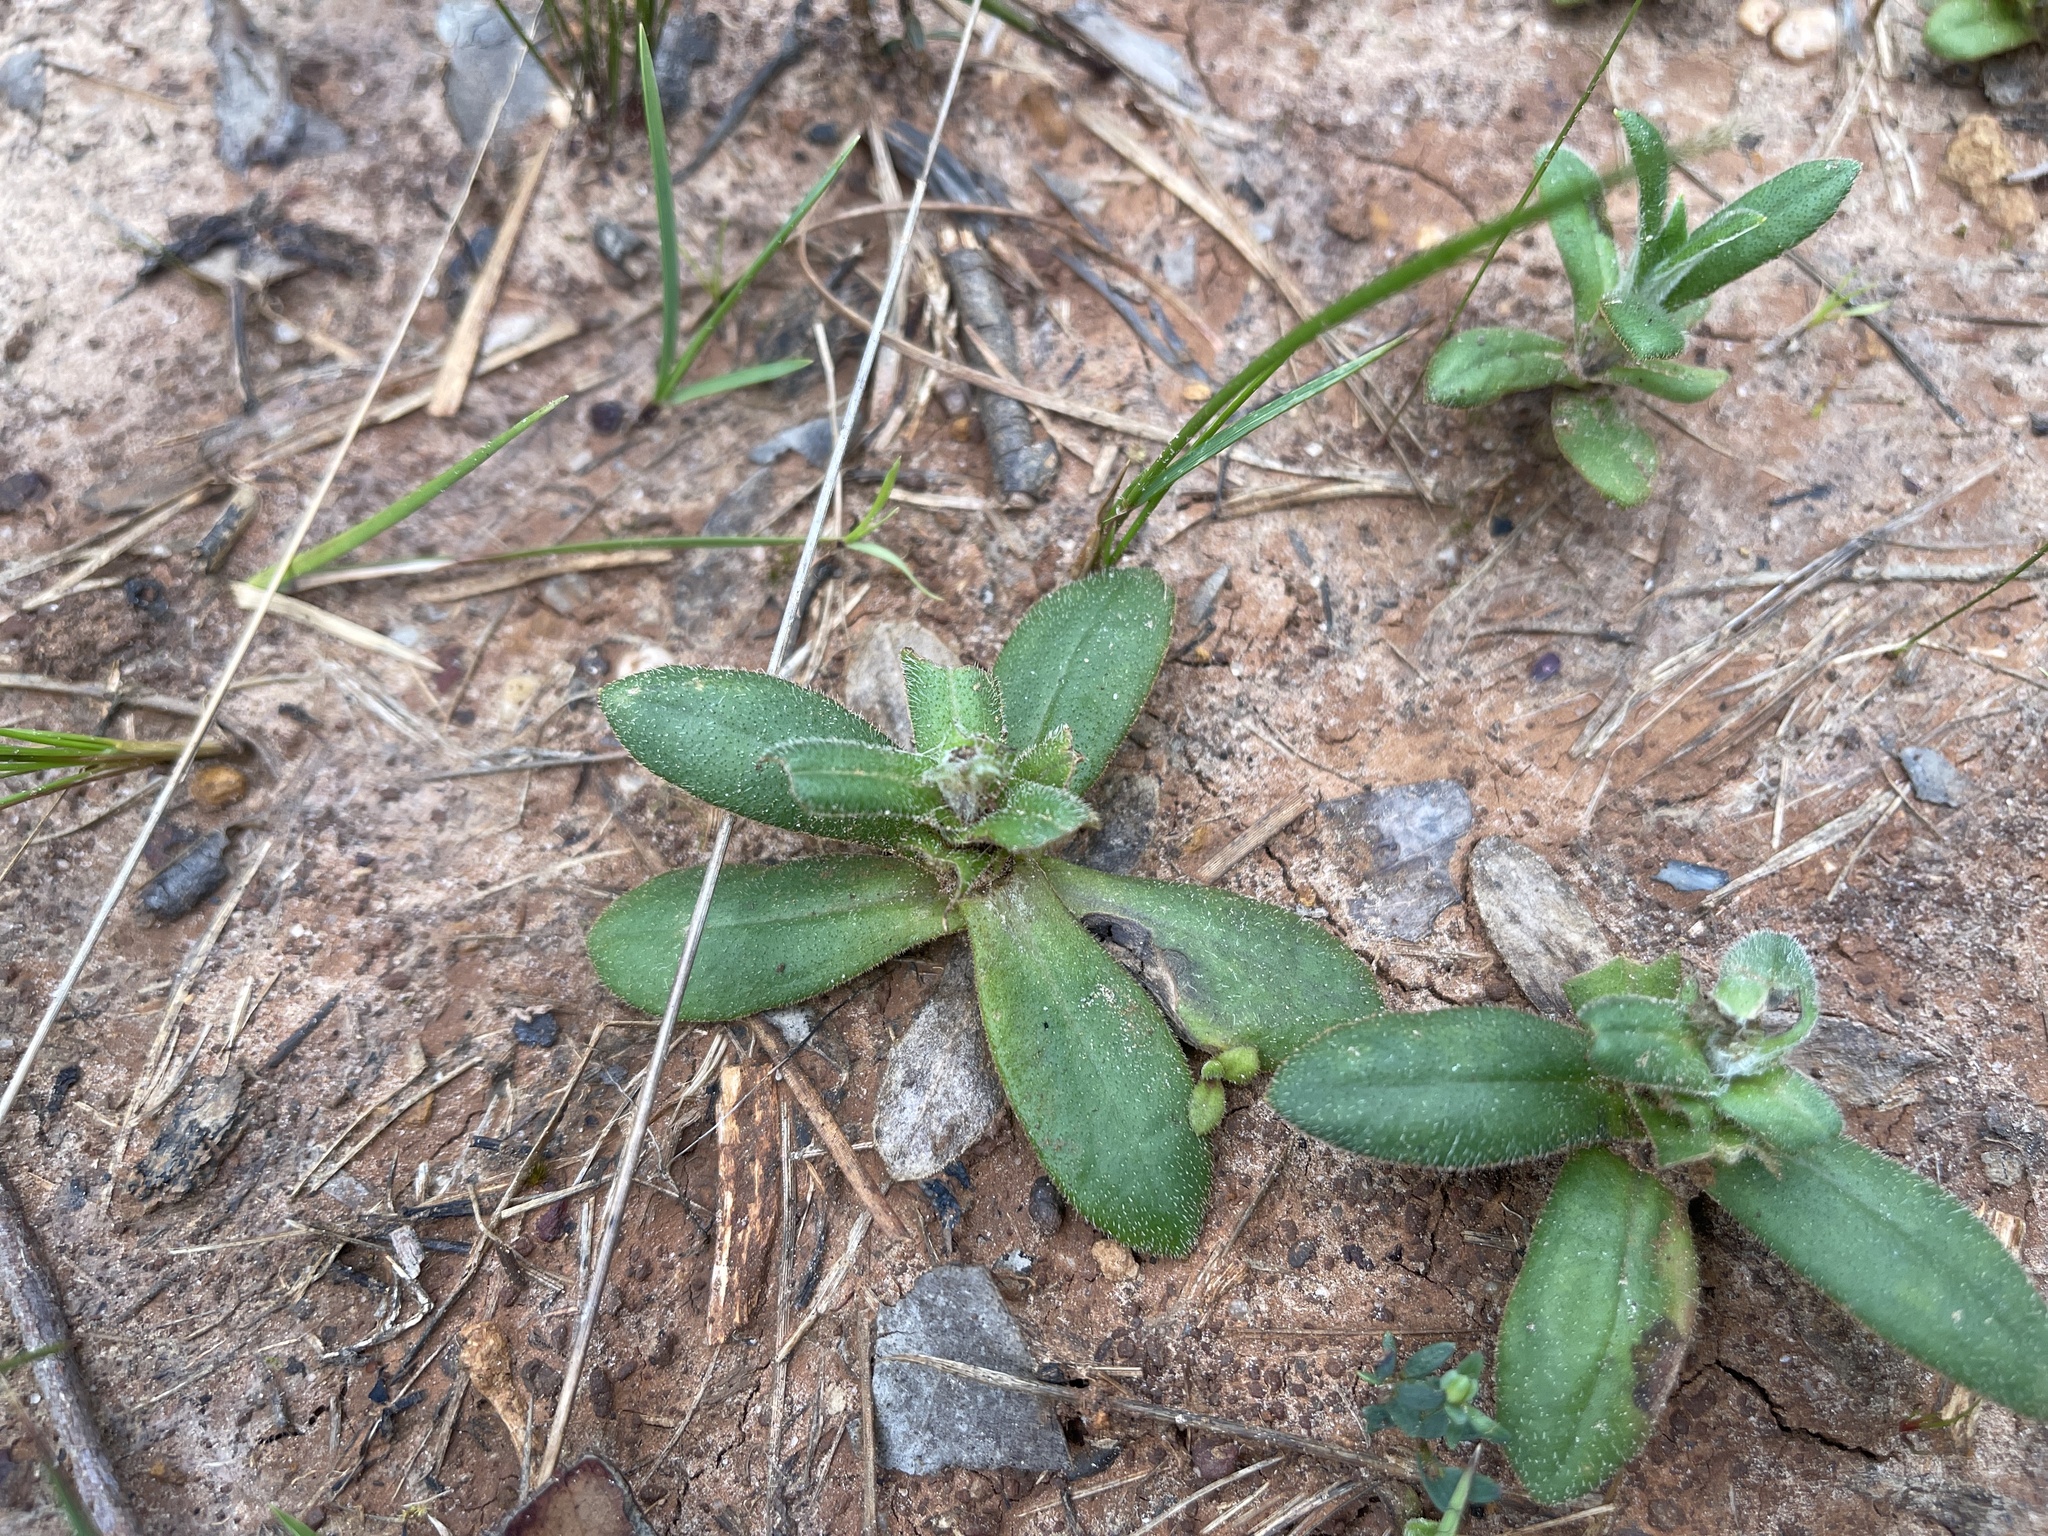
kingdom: Plantae
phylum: Tracheophyta
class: Magnoliopsida
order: Asterales
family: Asteraceae
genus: Coronidium
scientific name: Coronidium scorpioides
